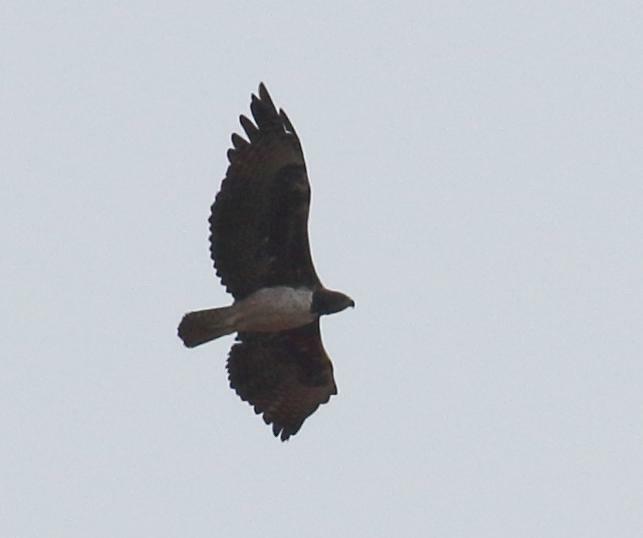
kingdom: Animalia
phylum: Chordata
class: Aves
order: Accipitriformes
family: Accipitridae
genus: Polemaetus
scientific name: Polemaetus bellicosus
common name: Martial eagle
